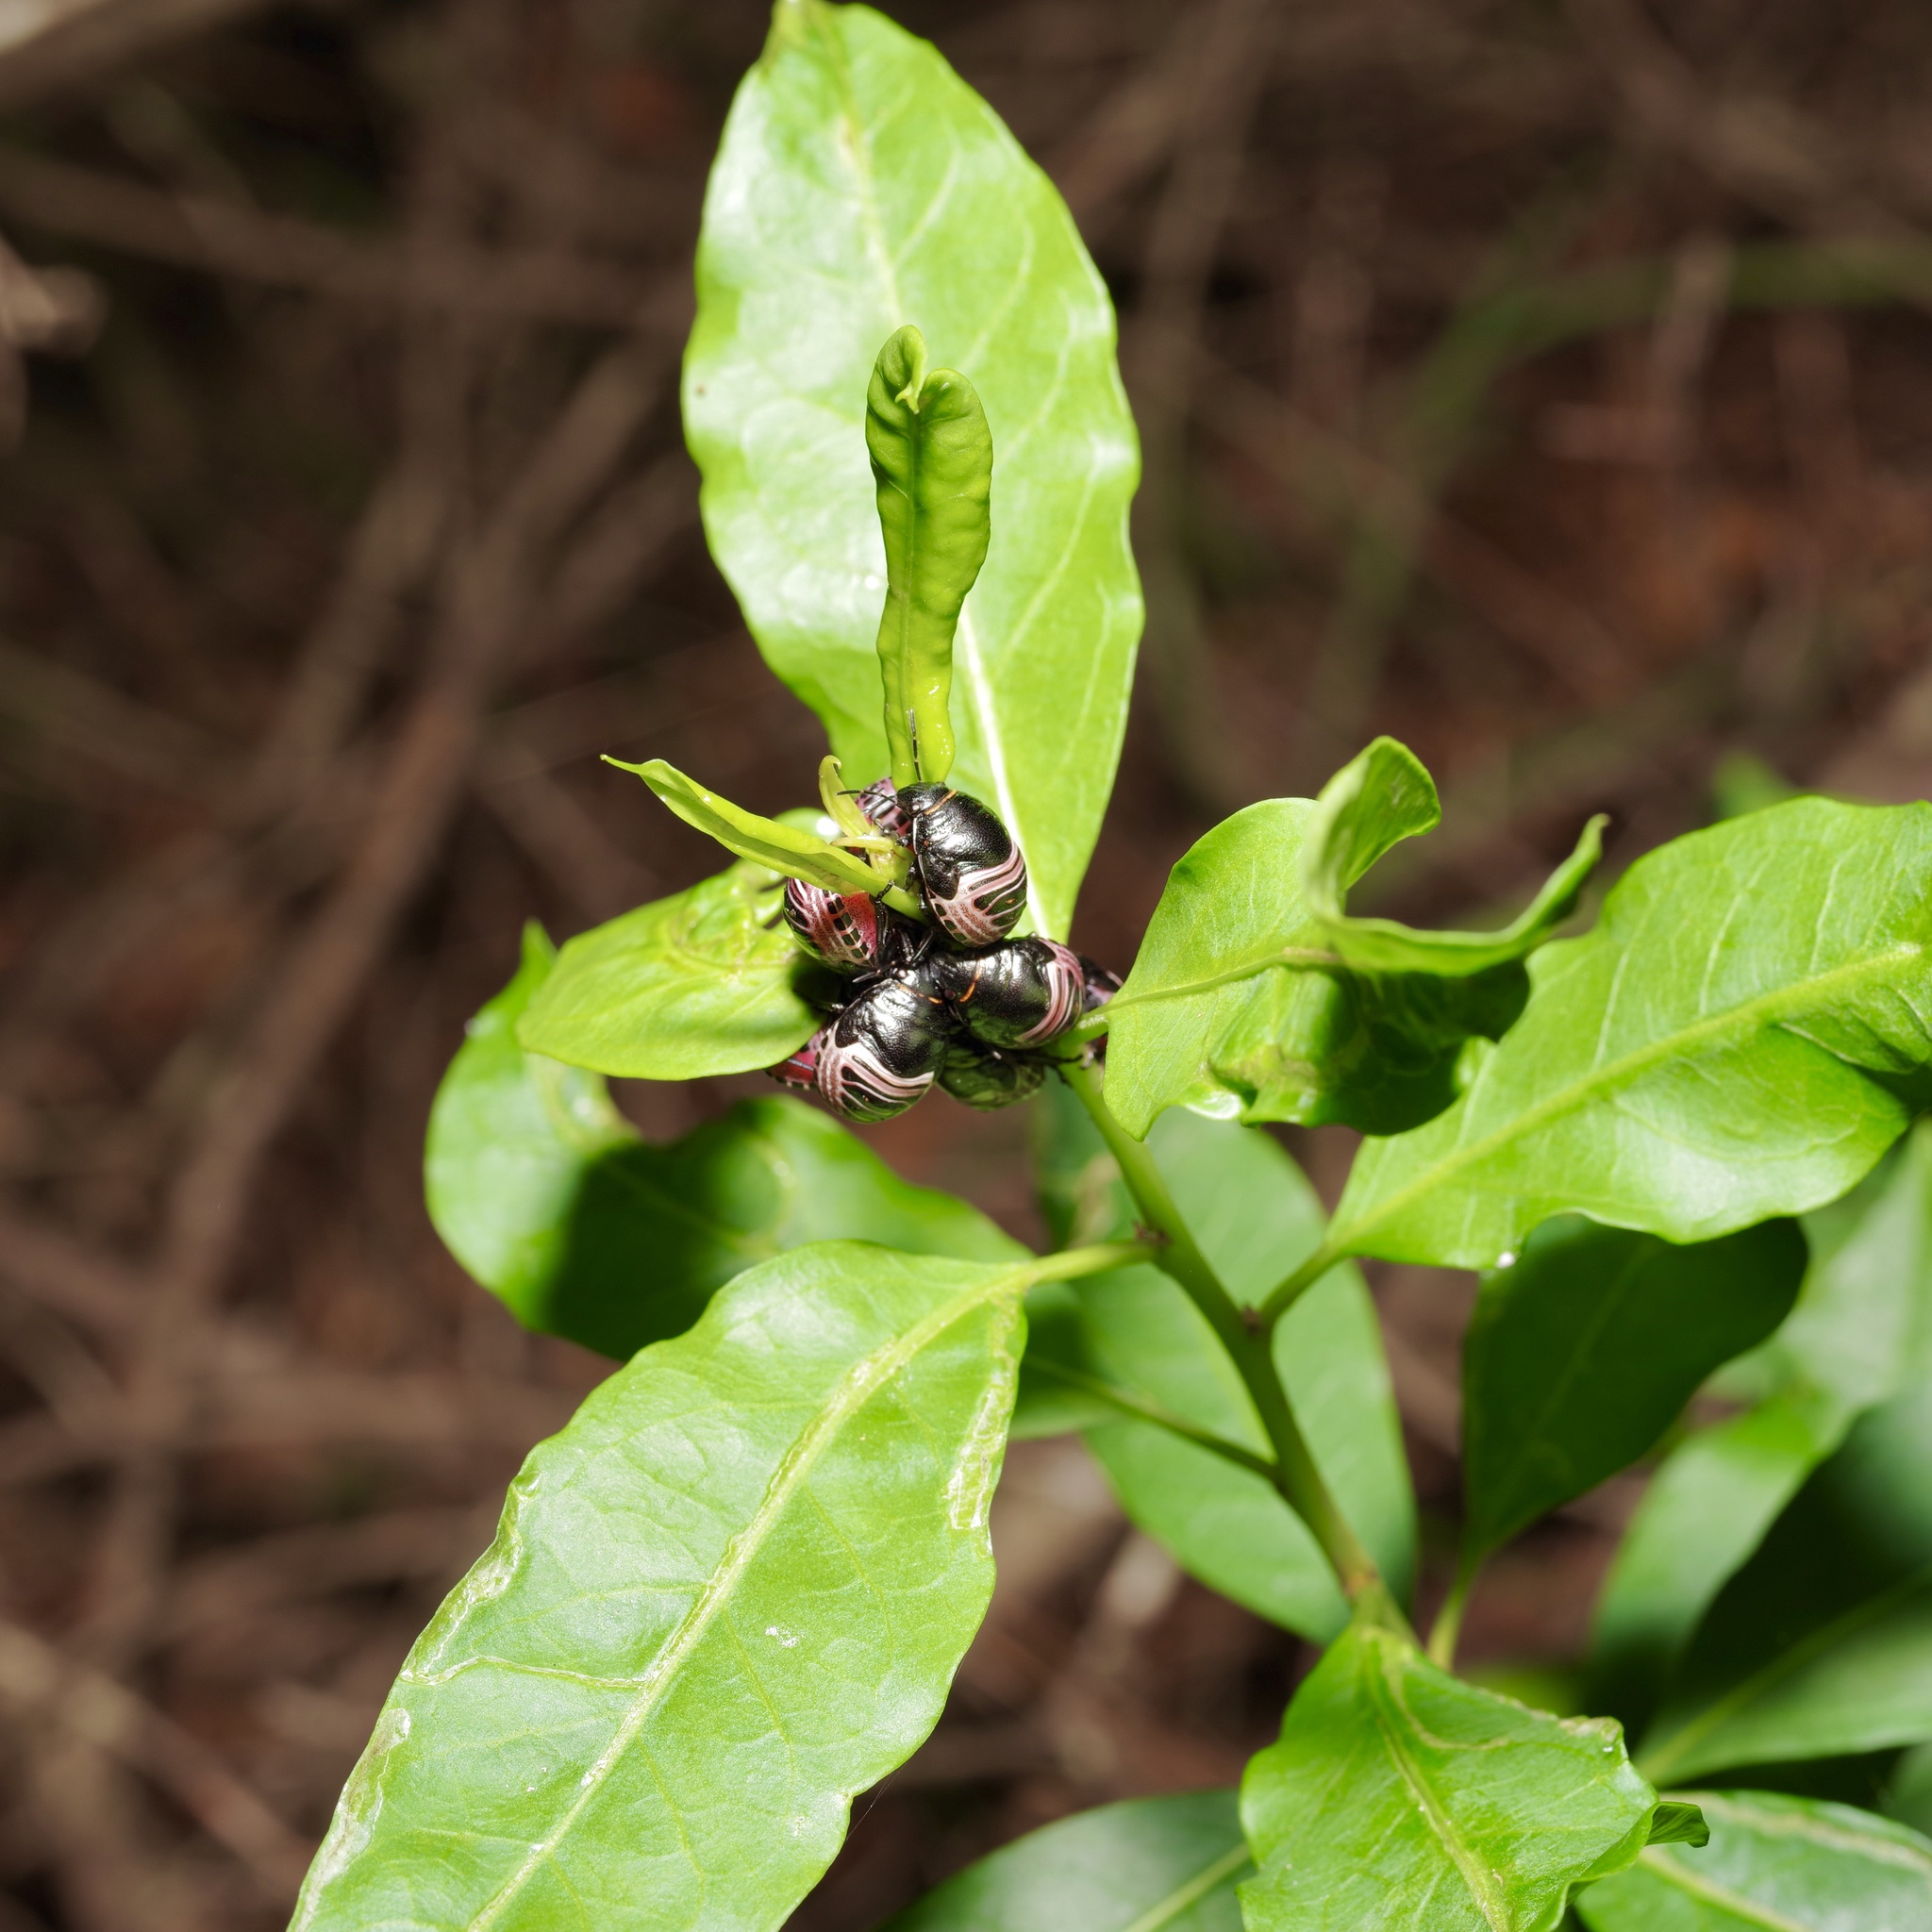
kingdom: Animalia
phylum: Arthropoda
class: Insecta
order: Hemiptera
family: Scutelleridae
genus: Orsilochides
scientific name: Orsilochides guttata
